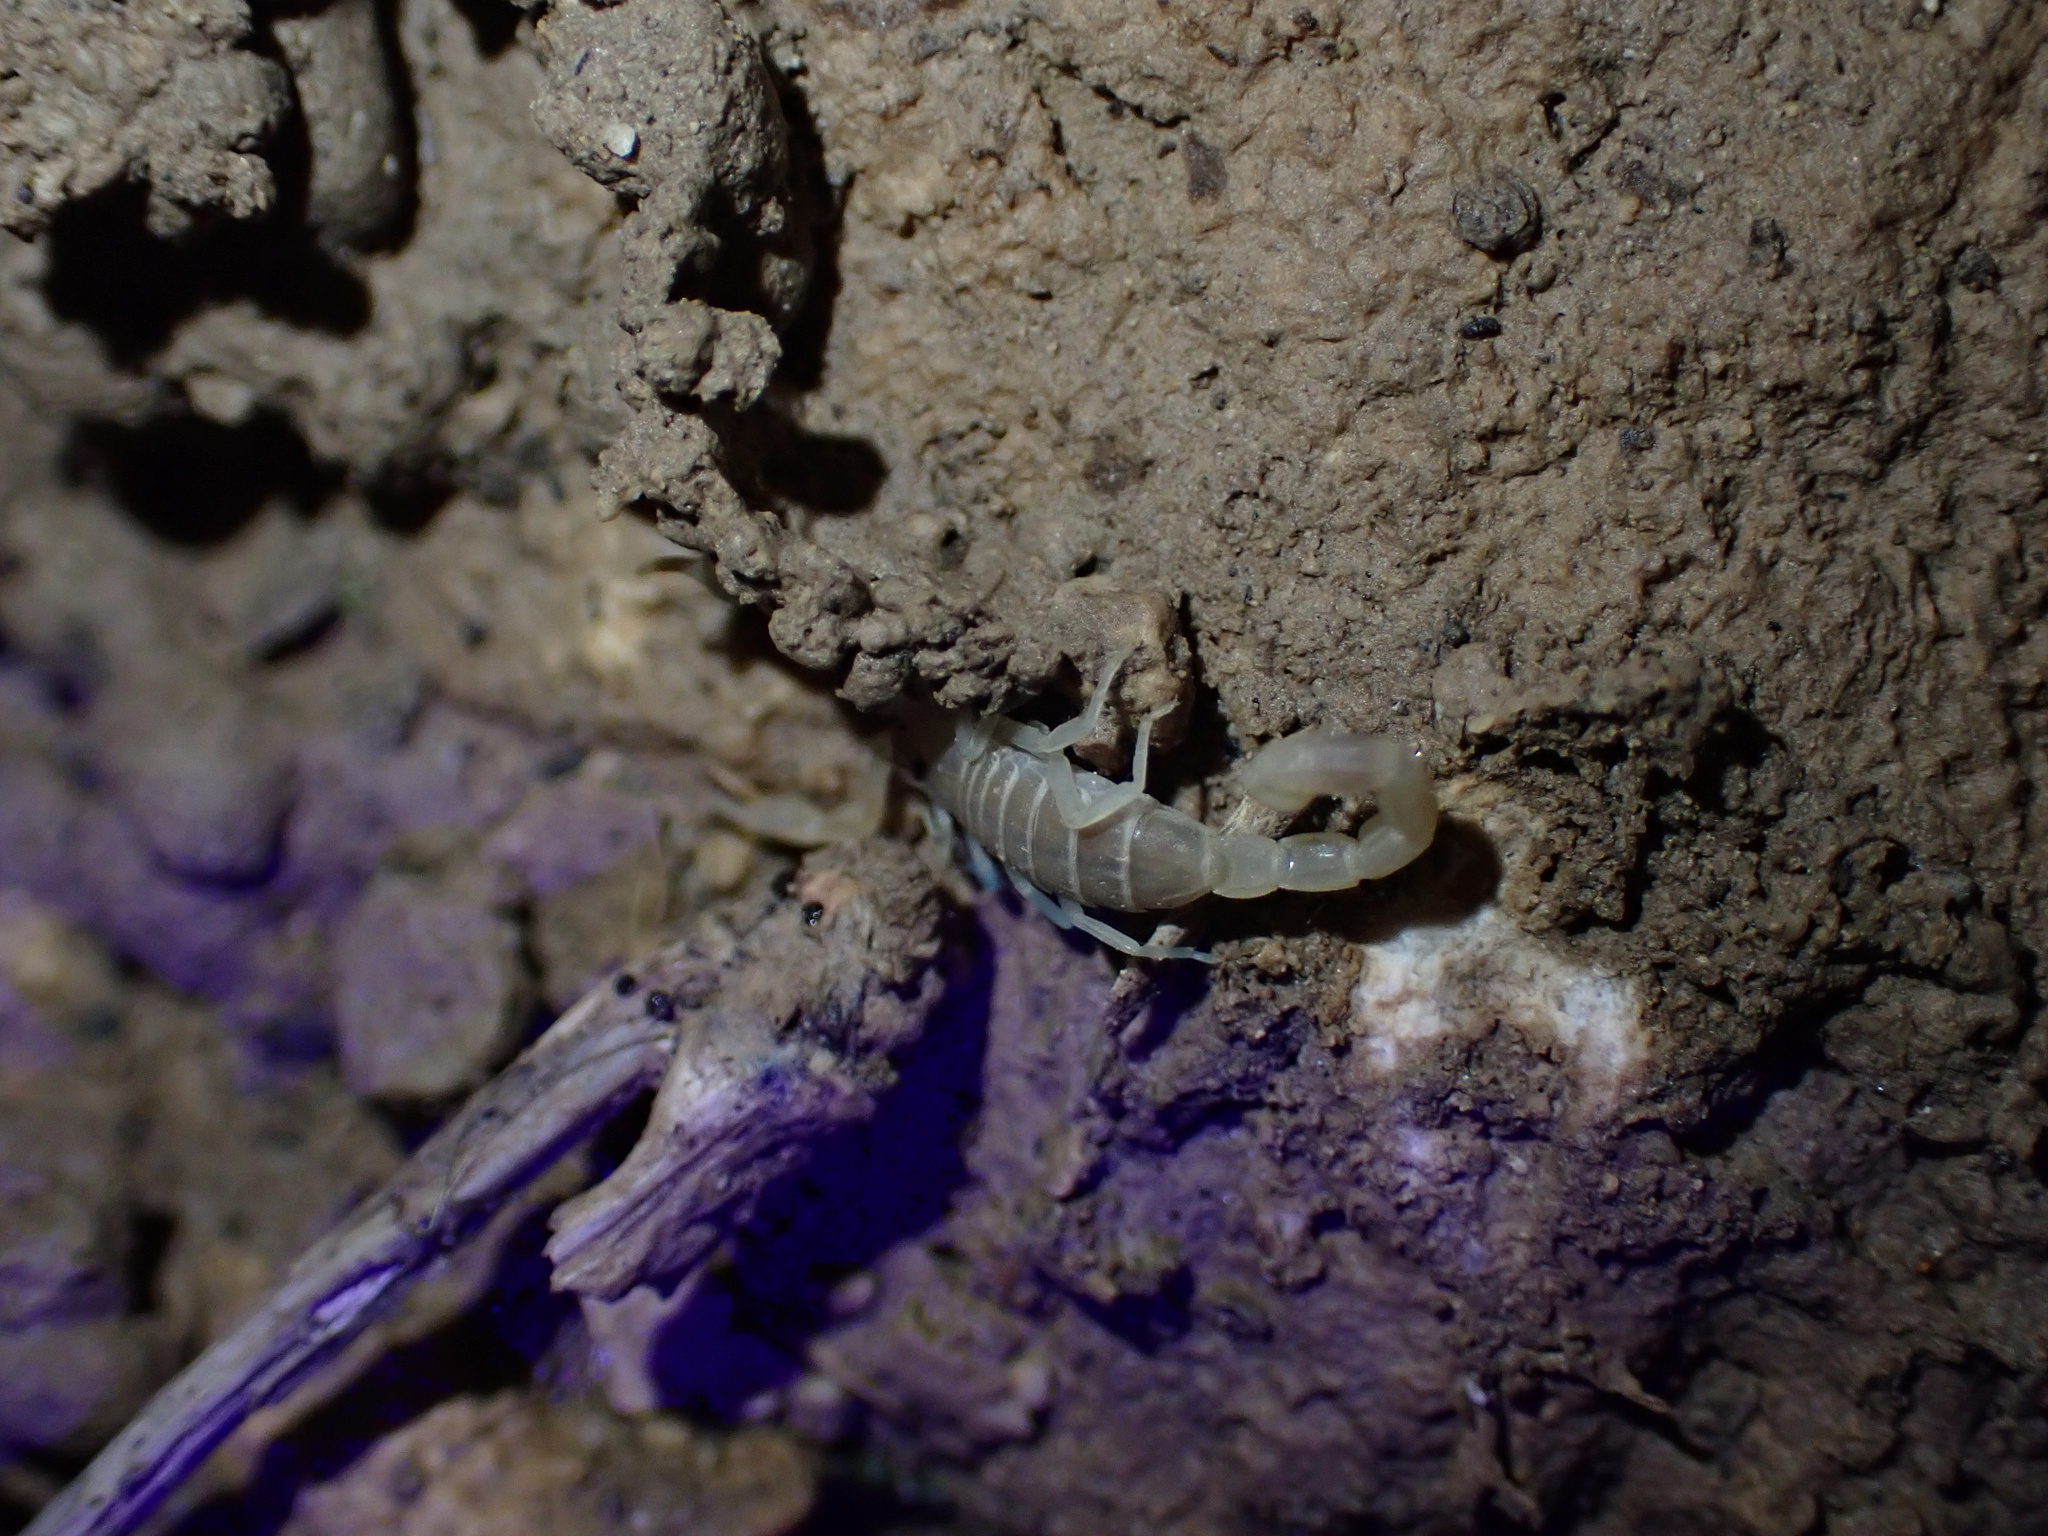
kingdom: Animalia
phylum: Arthropoda
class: Arachnida
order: Scorpiones
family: Buthidae
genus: Razianus
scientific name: Razianus zarudnyi
